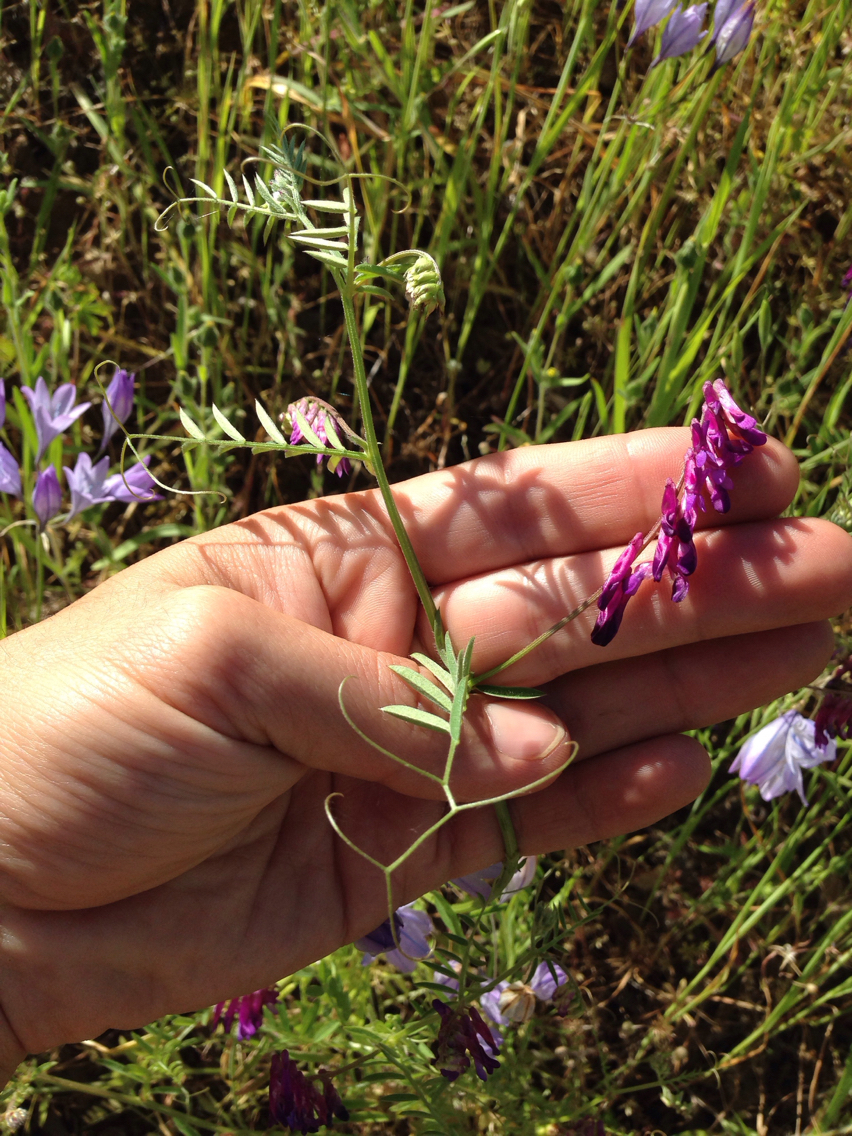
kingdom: Plantae
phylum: Tracheophyta
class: Magnoliopsida
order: Fabales
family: Fabaceae
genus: Vicia
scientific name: Vicia villosa
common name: Fodder vetch
